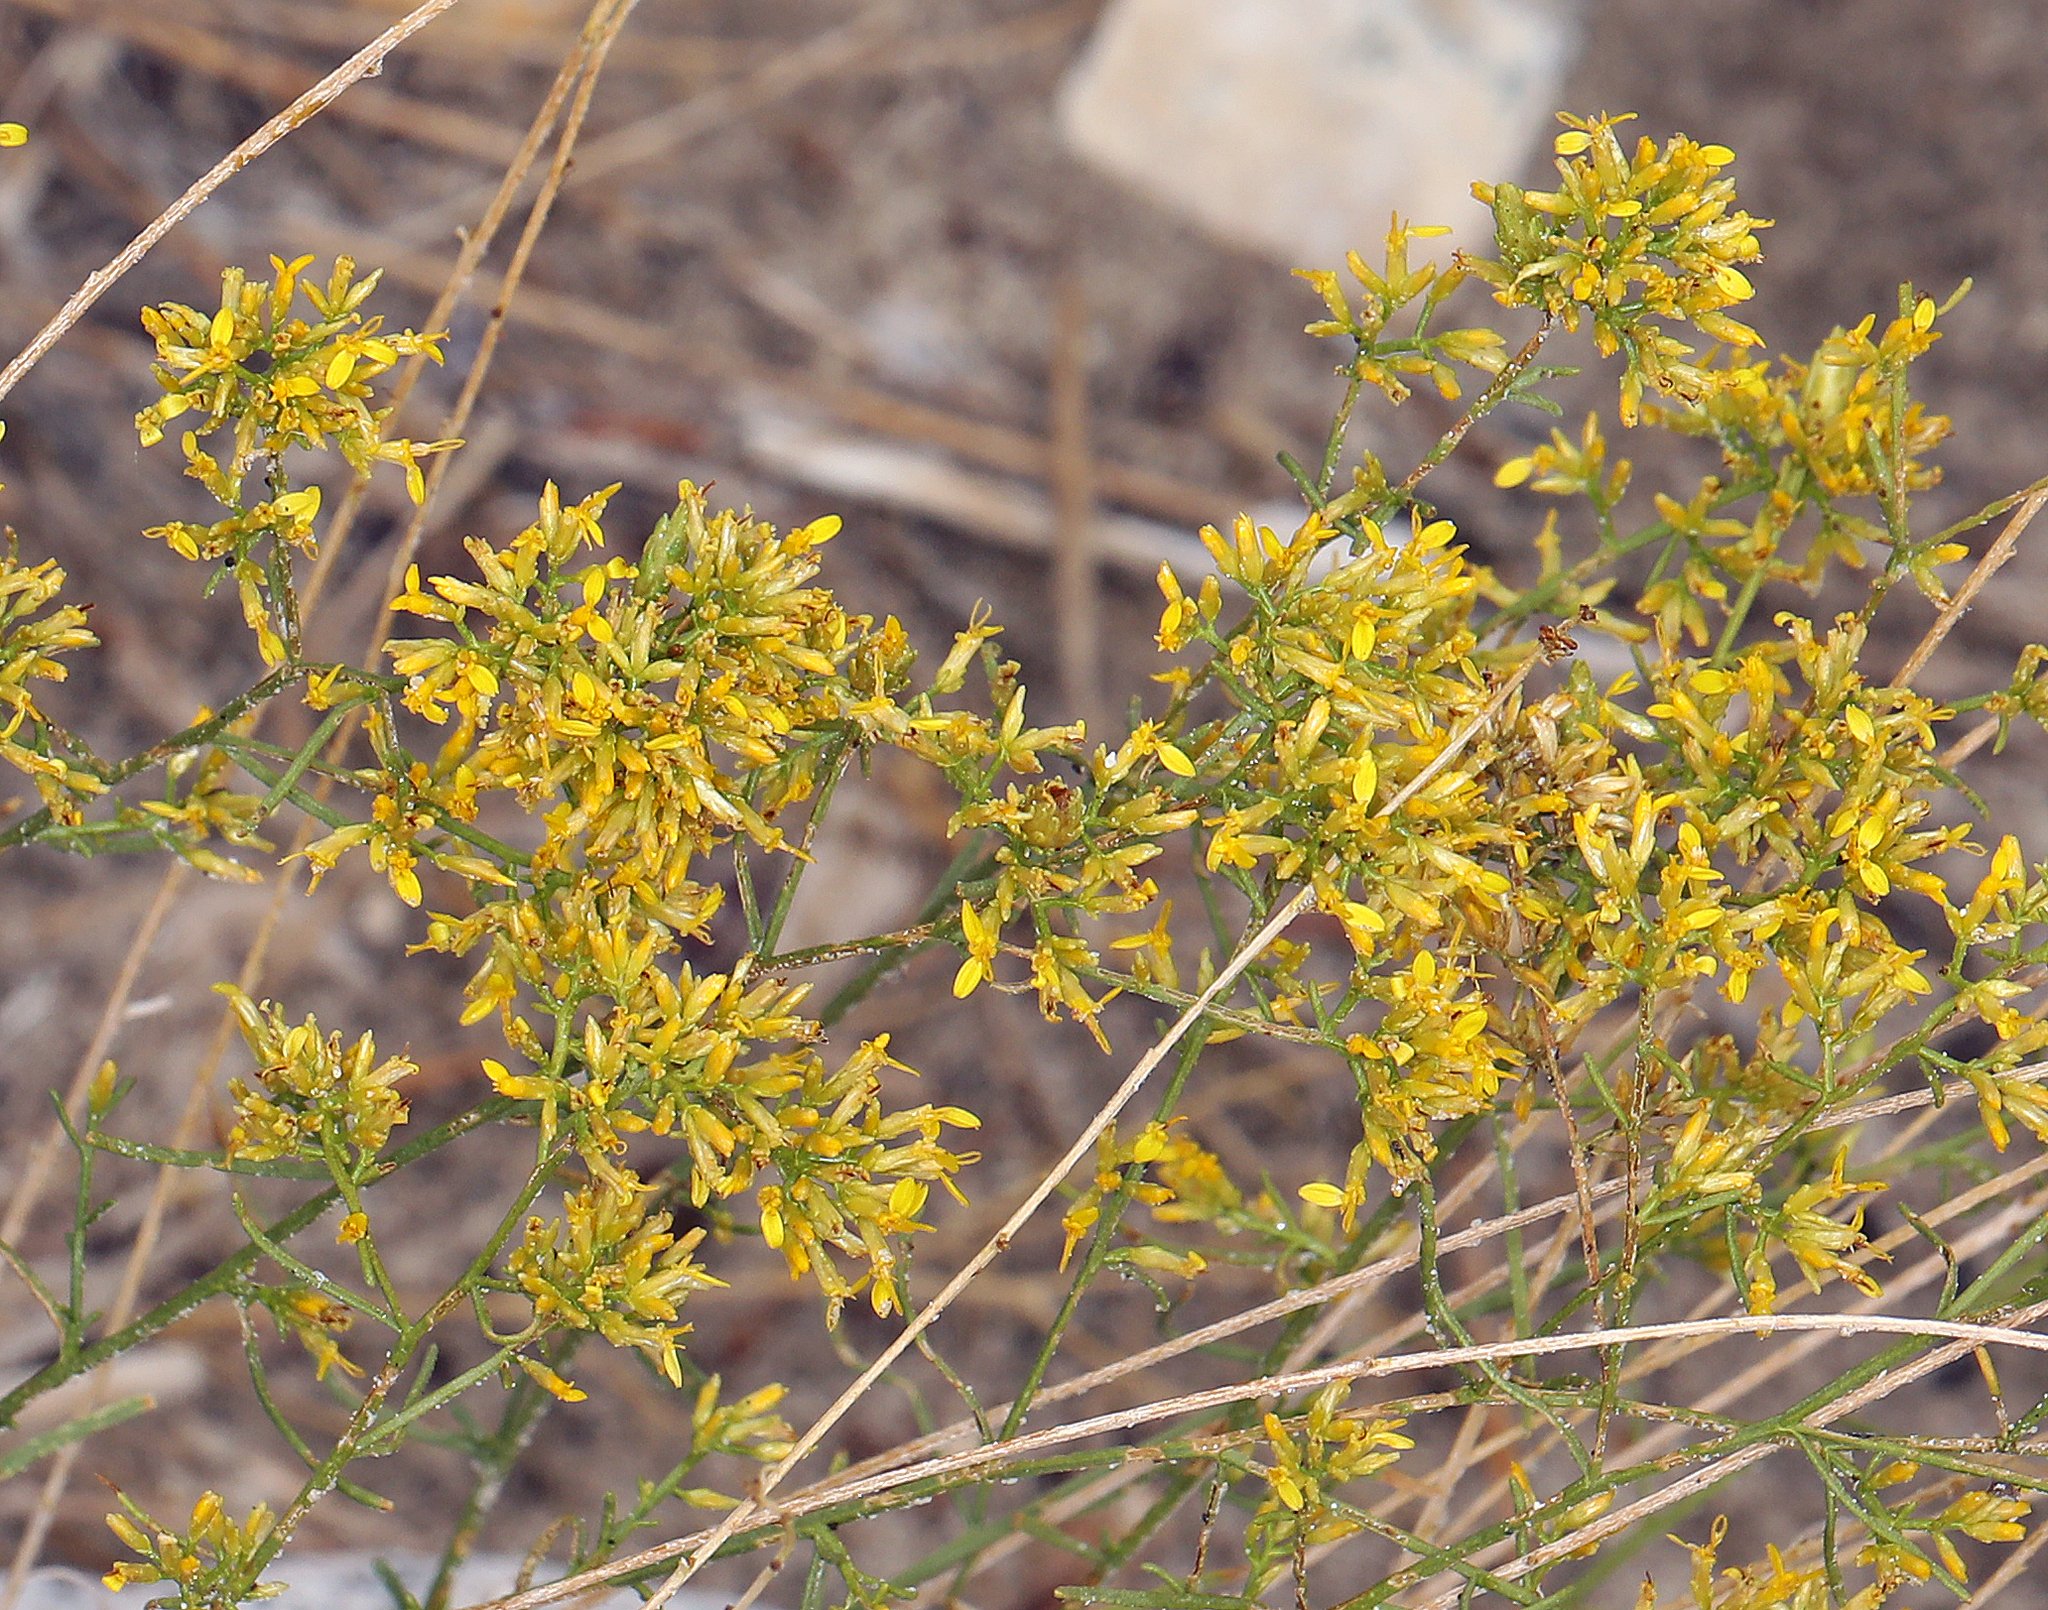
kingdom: Plantae
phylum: Tracheophyta
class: Magnoliopsida
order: Asterales
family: Asteraceae
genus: Gutierrezia
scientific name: Gutierrezia microcephala
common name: Thread snakeweed
